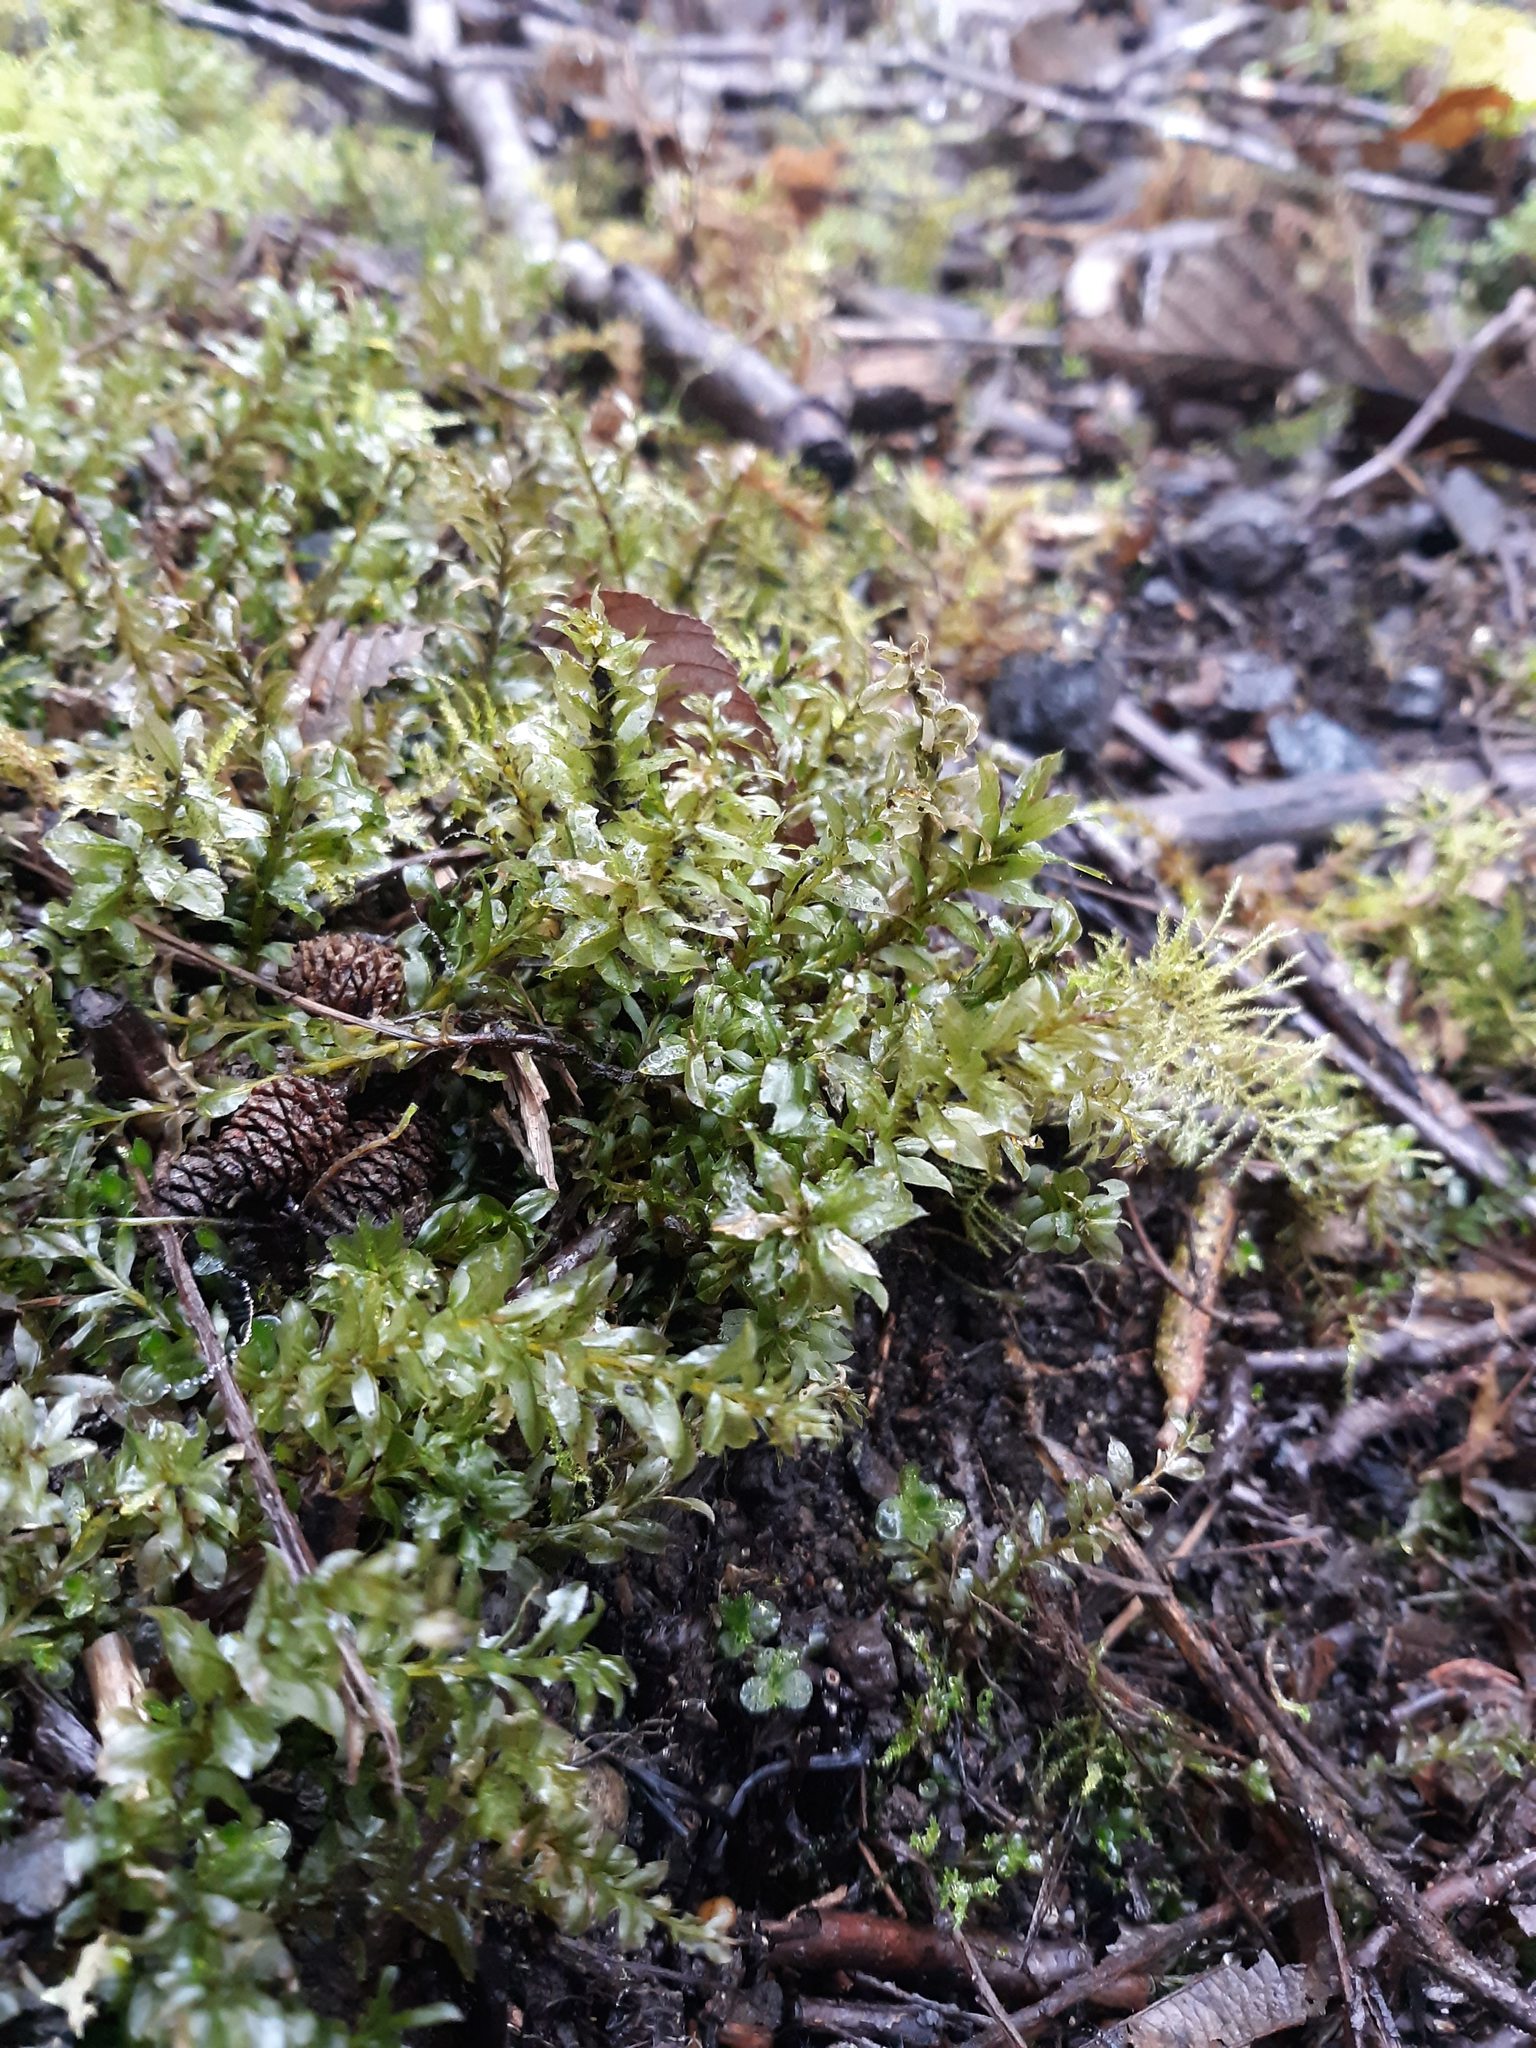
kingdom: Plantae
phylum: Bryophyta
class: Bryopsida
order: Bryales
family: Mniaceae
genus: Plagiomnium
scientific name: Plagiomnium insigne
